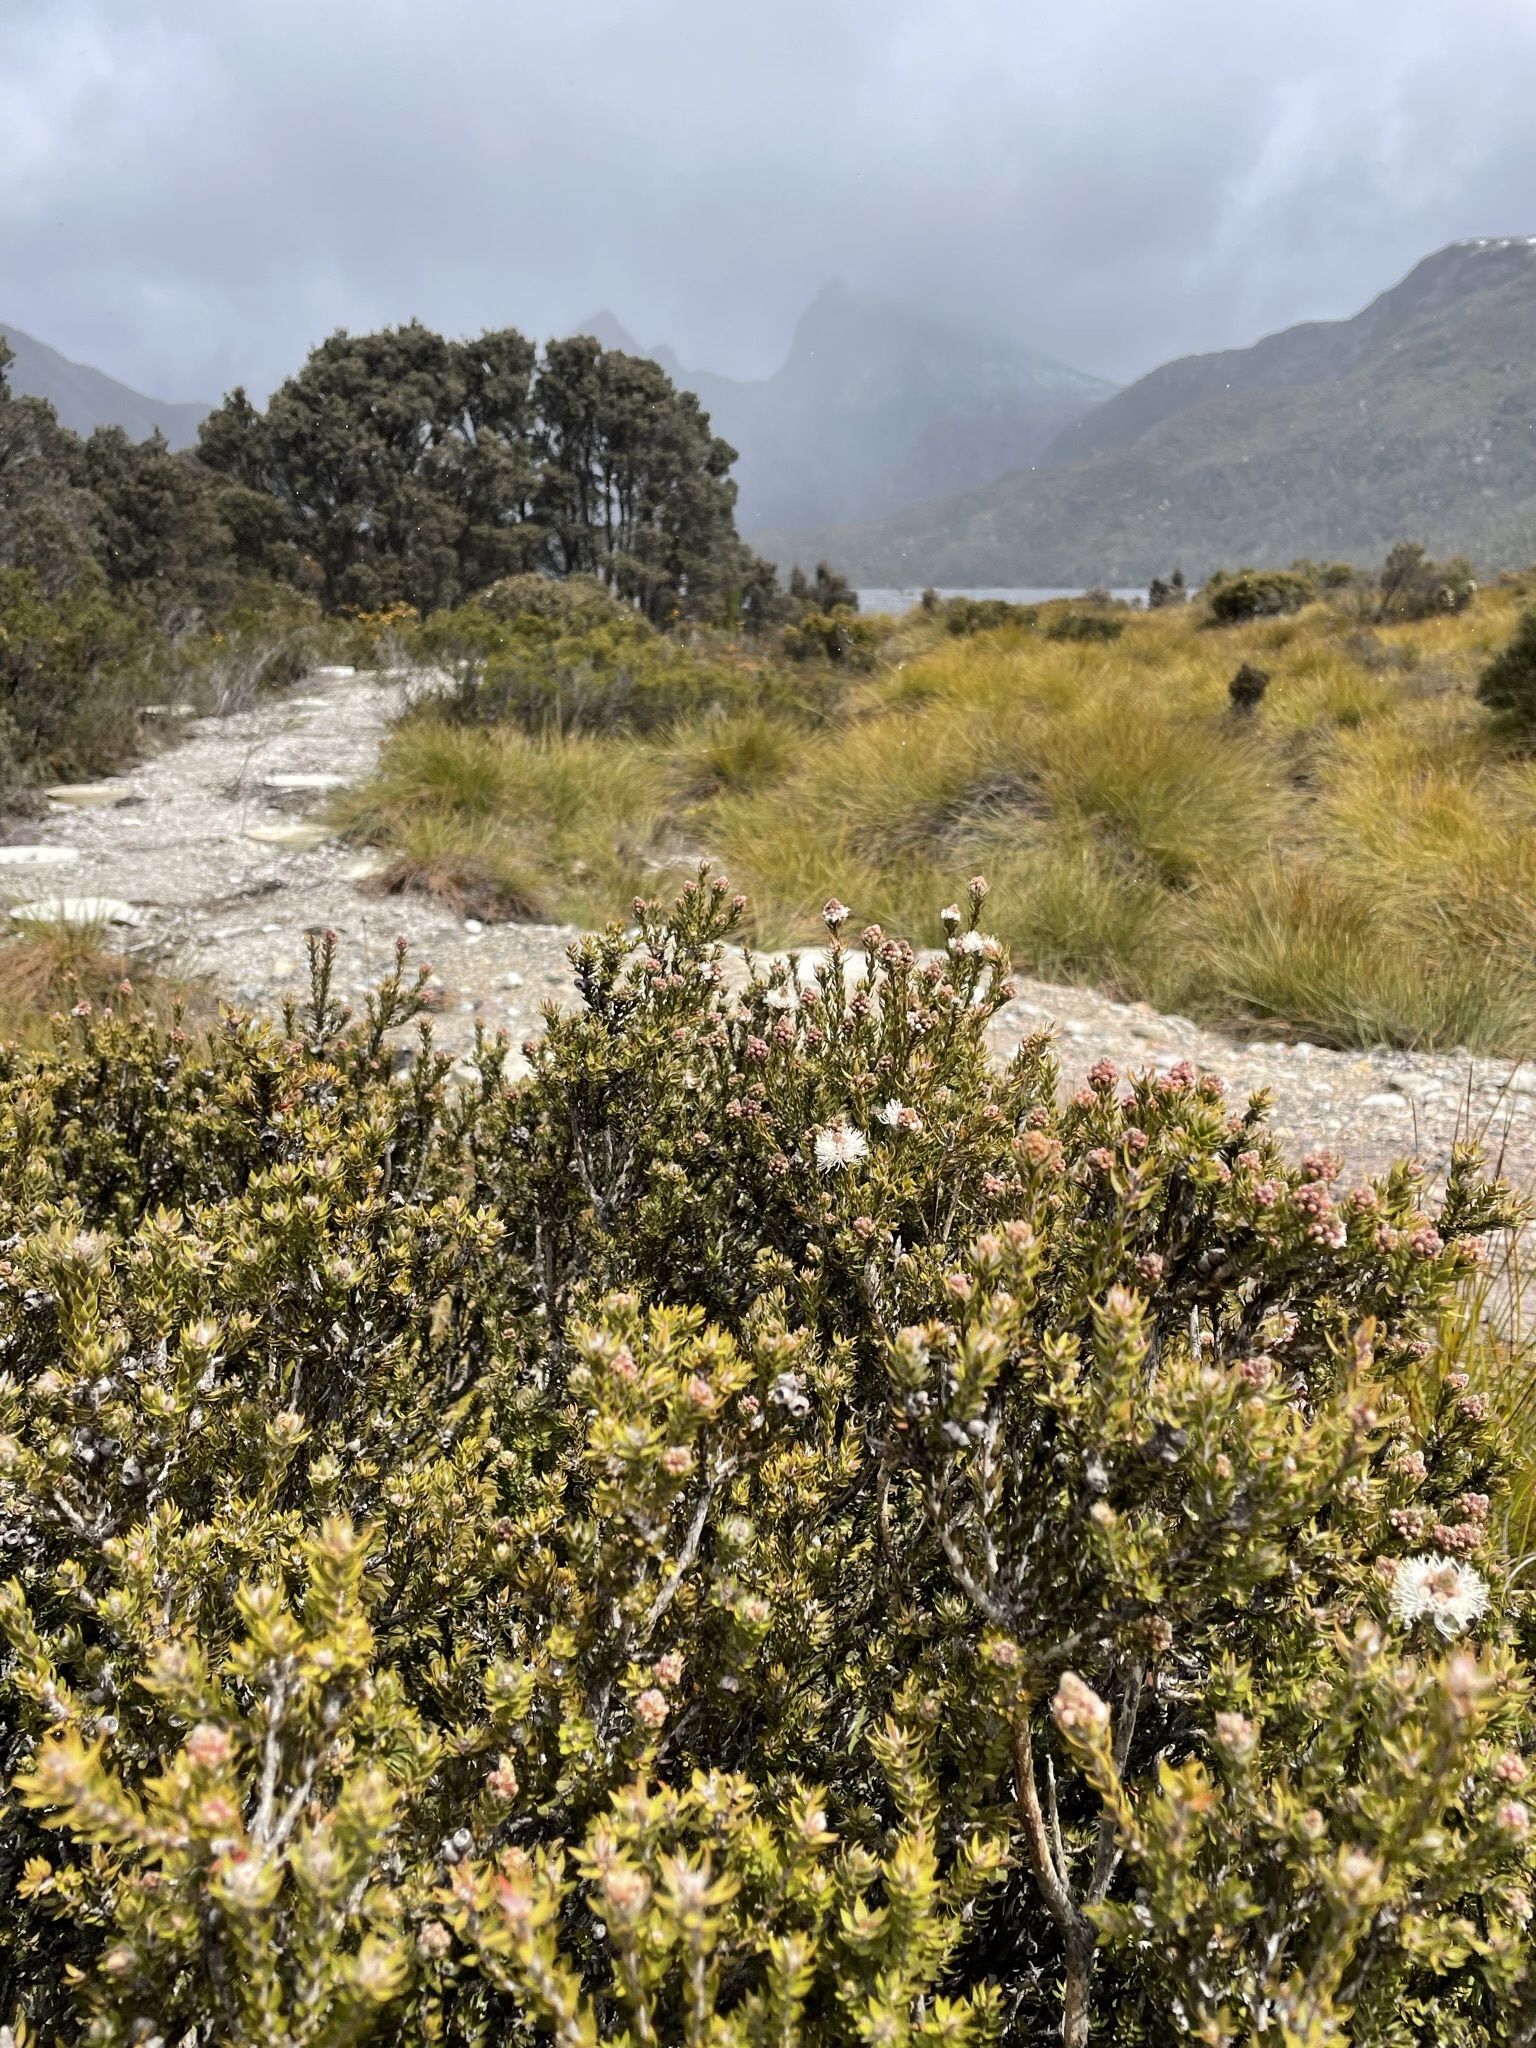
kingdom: Plantae
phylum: Tracheophyta
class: Magnoliopsida
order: Myrtales
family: Myrtaceae
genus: Melaleuca
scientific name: Melaleuca squamea
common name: Swamp melaleuca
